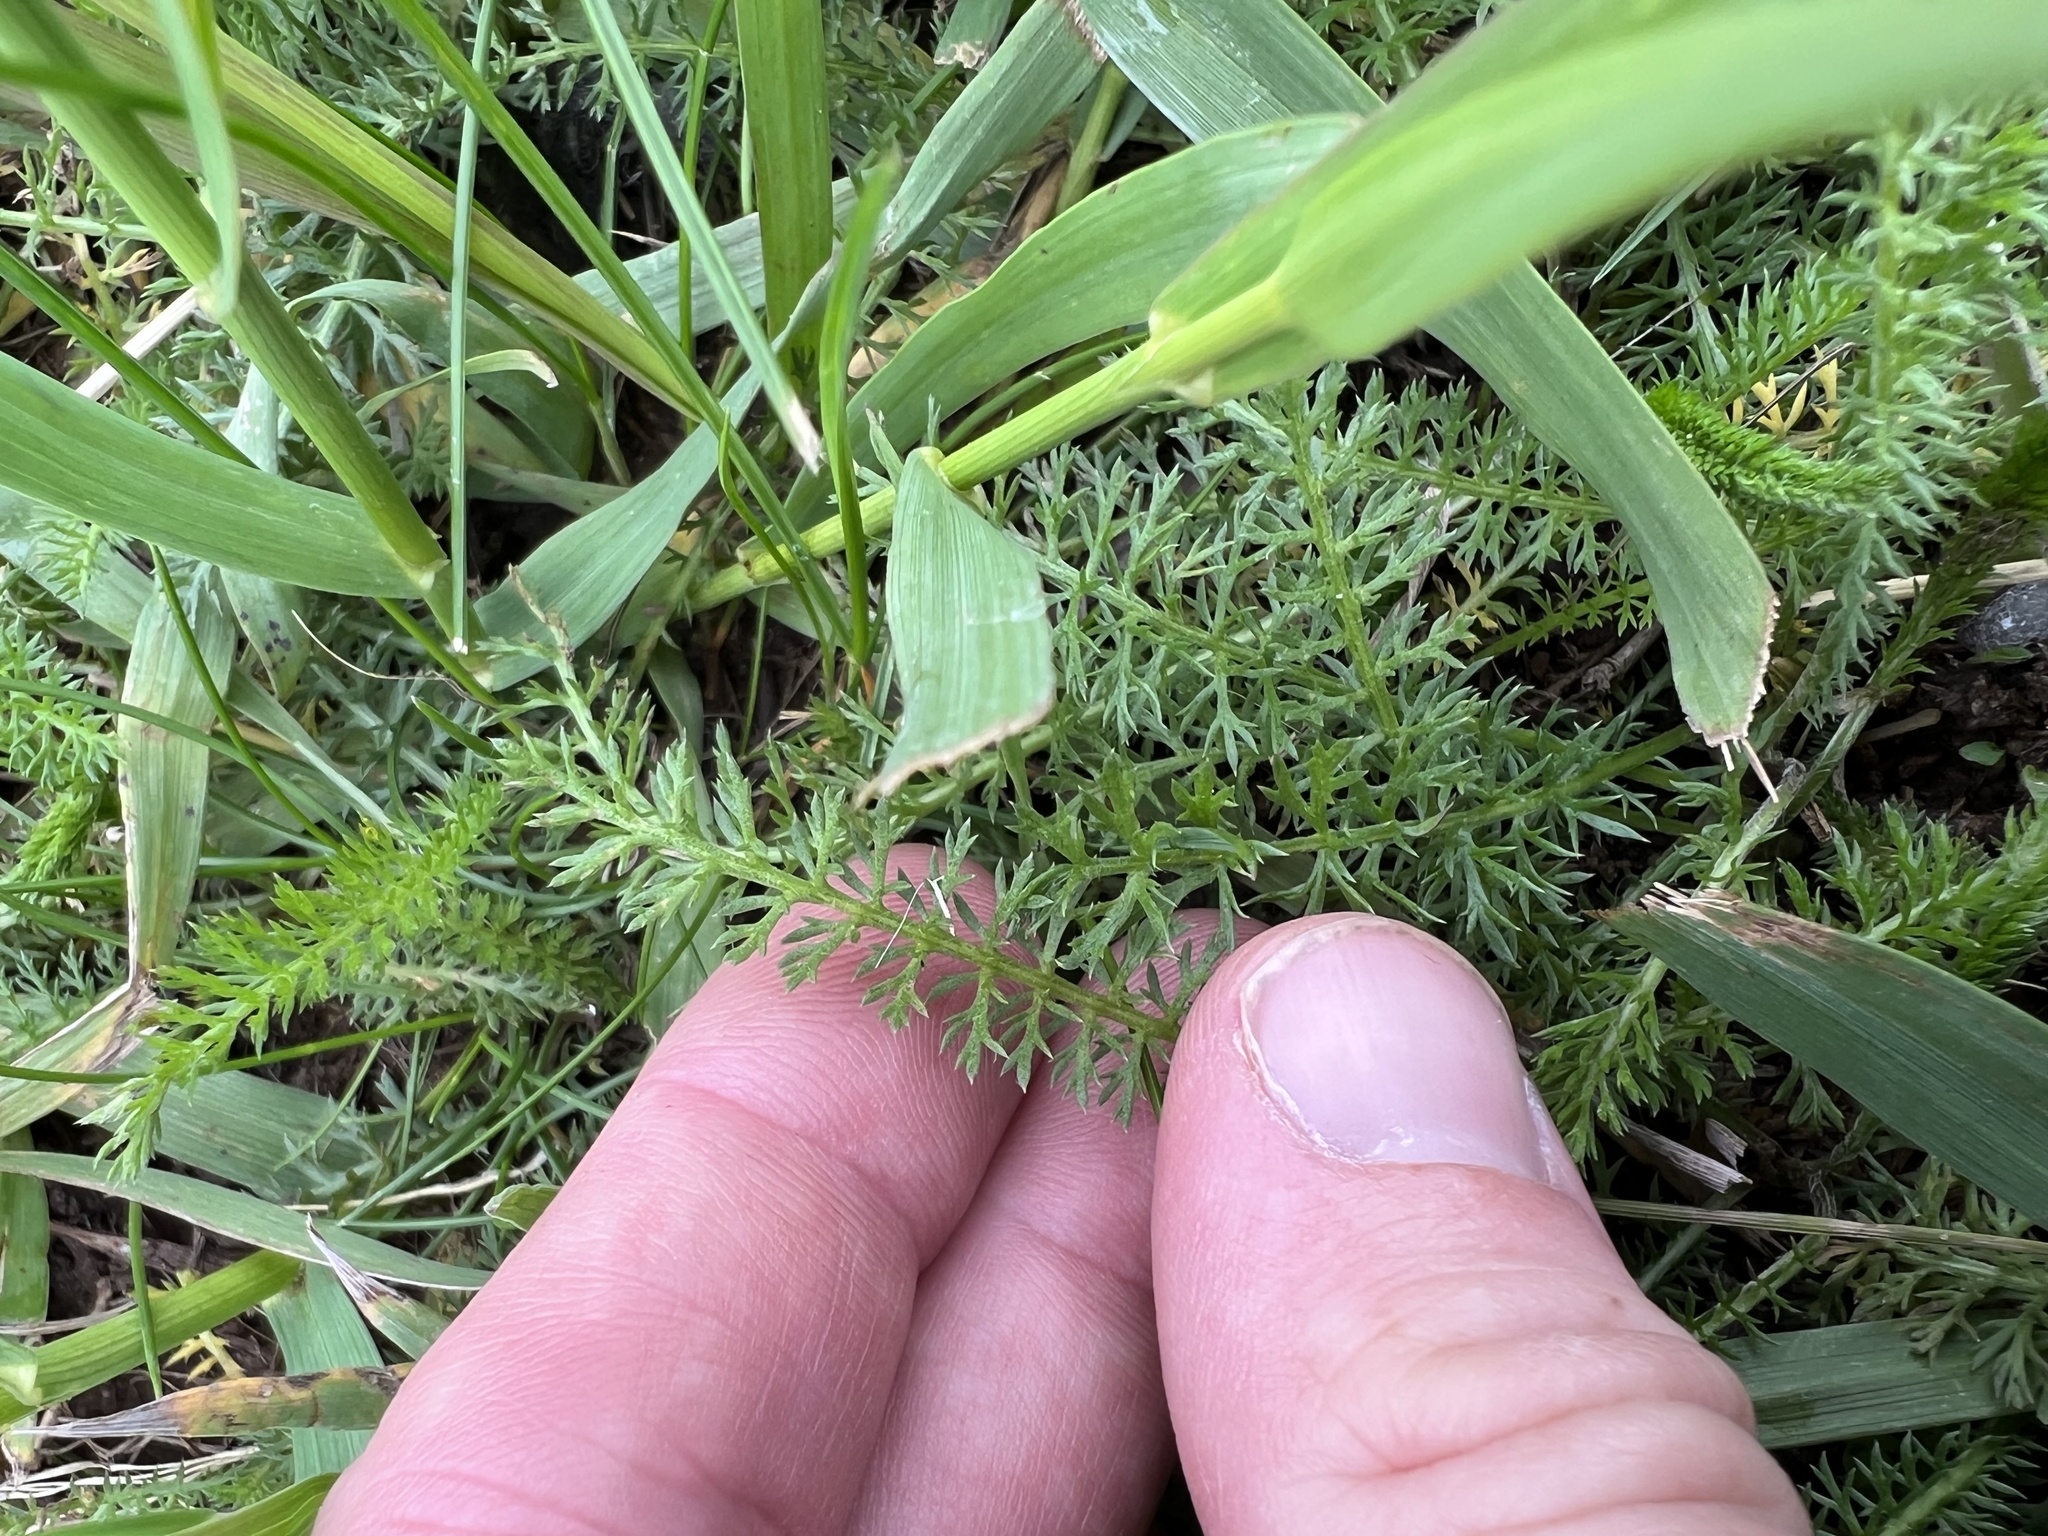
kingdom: Plantae
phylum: Tracheophyta
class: Magnoliopsida
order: Asterales
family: Asteraceae
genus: Achillea
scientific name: Achillea millefolium
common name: Yarrow
